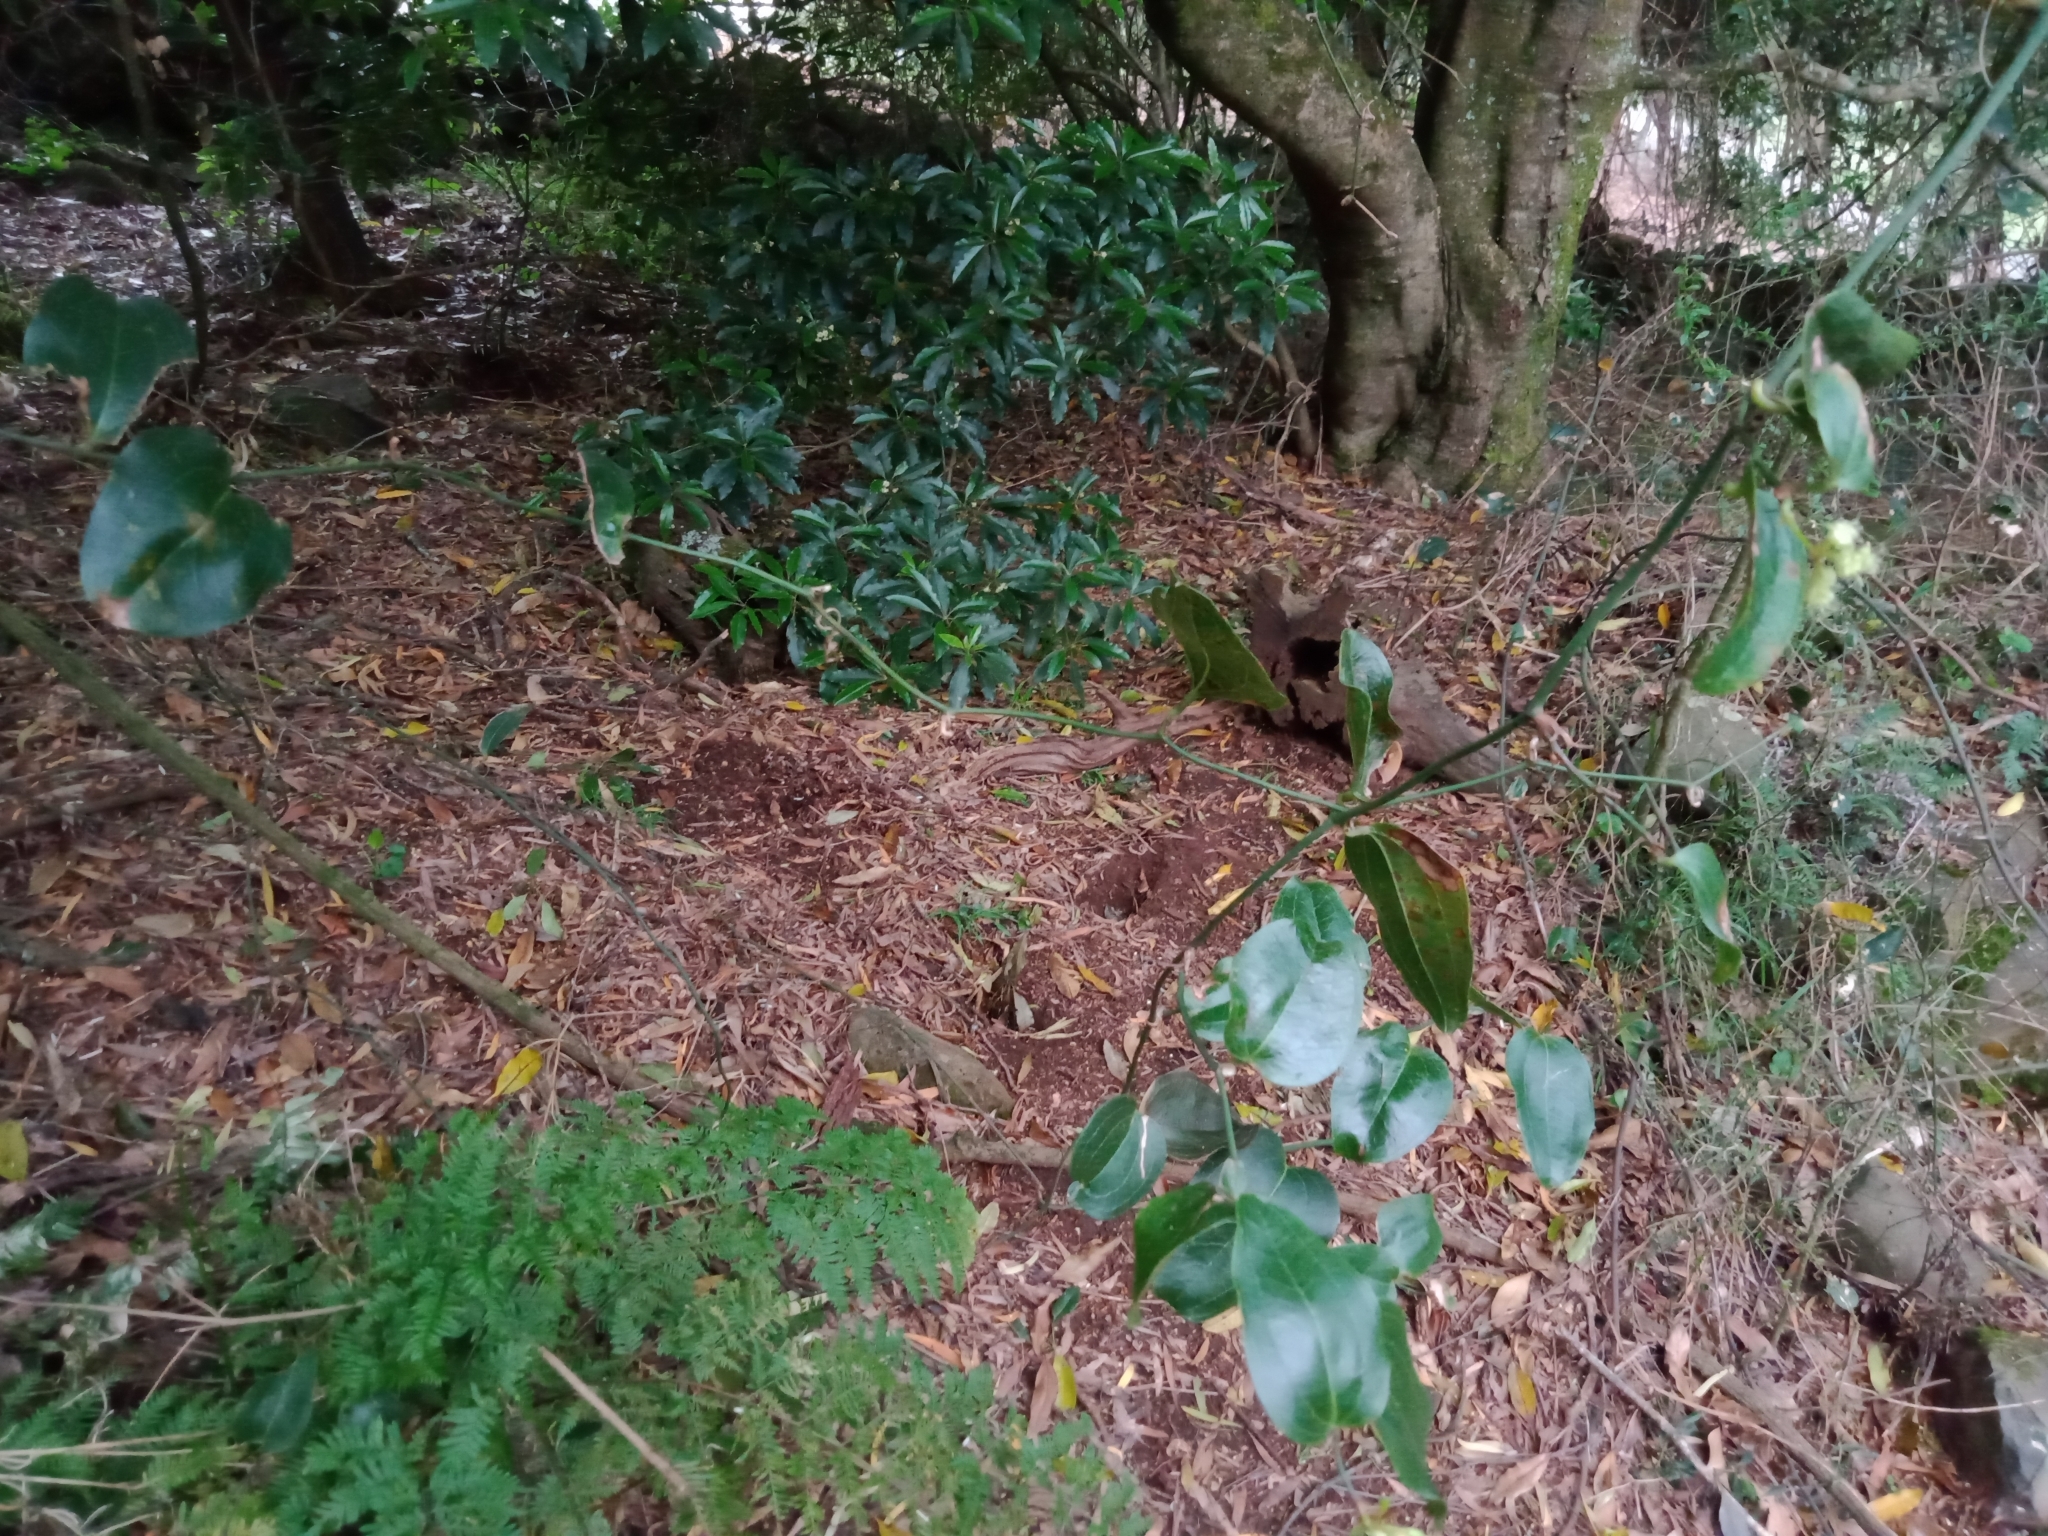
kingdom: Plantae
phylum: Tracheophyta
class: Liliopsida
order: Liliales
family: Smilacaceae
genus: Smilax
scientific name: Smilax australis
